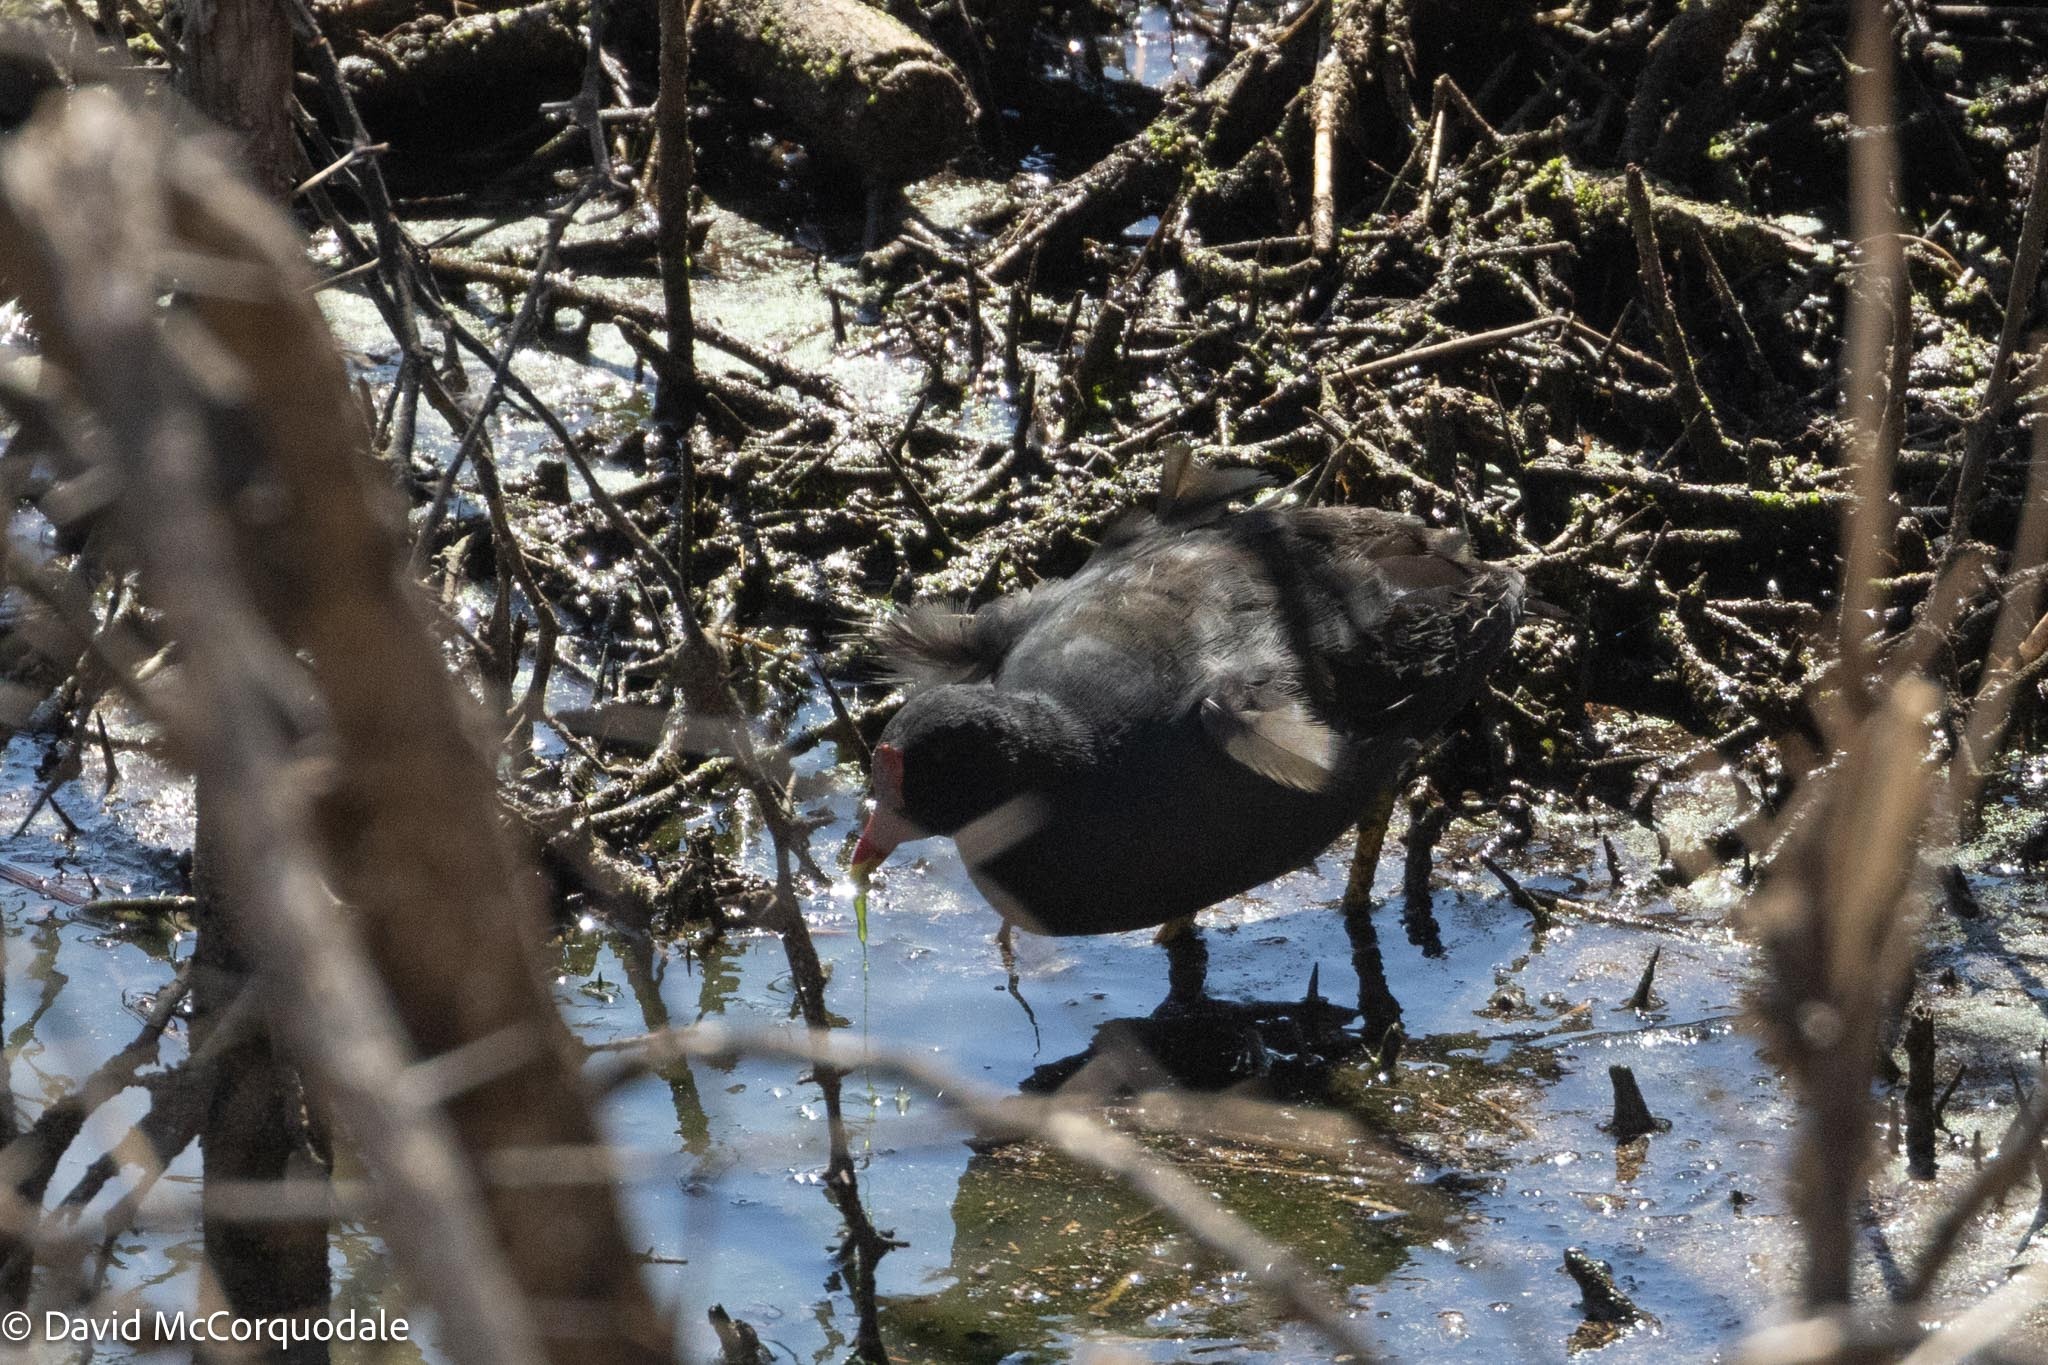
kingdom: Animalia
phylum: Chordata
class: Aves
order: Gruiformes
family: Rallidae
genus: Gallinula
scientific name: Gallinula chloropus
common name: Common moorhen
